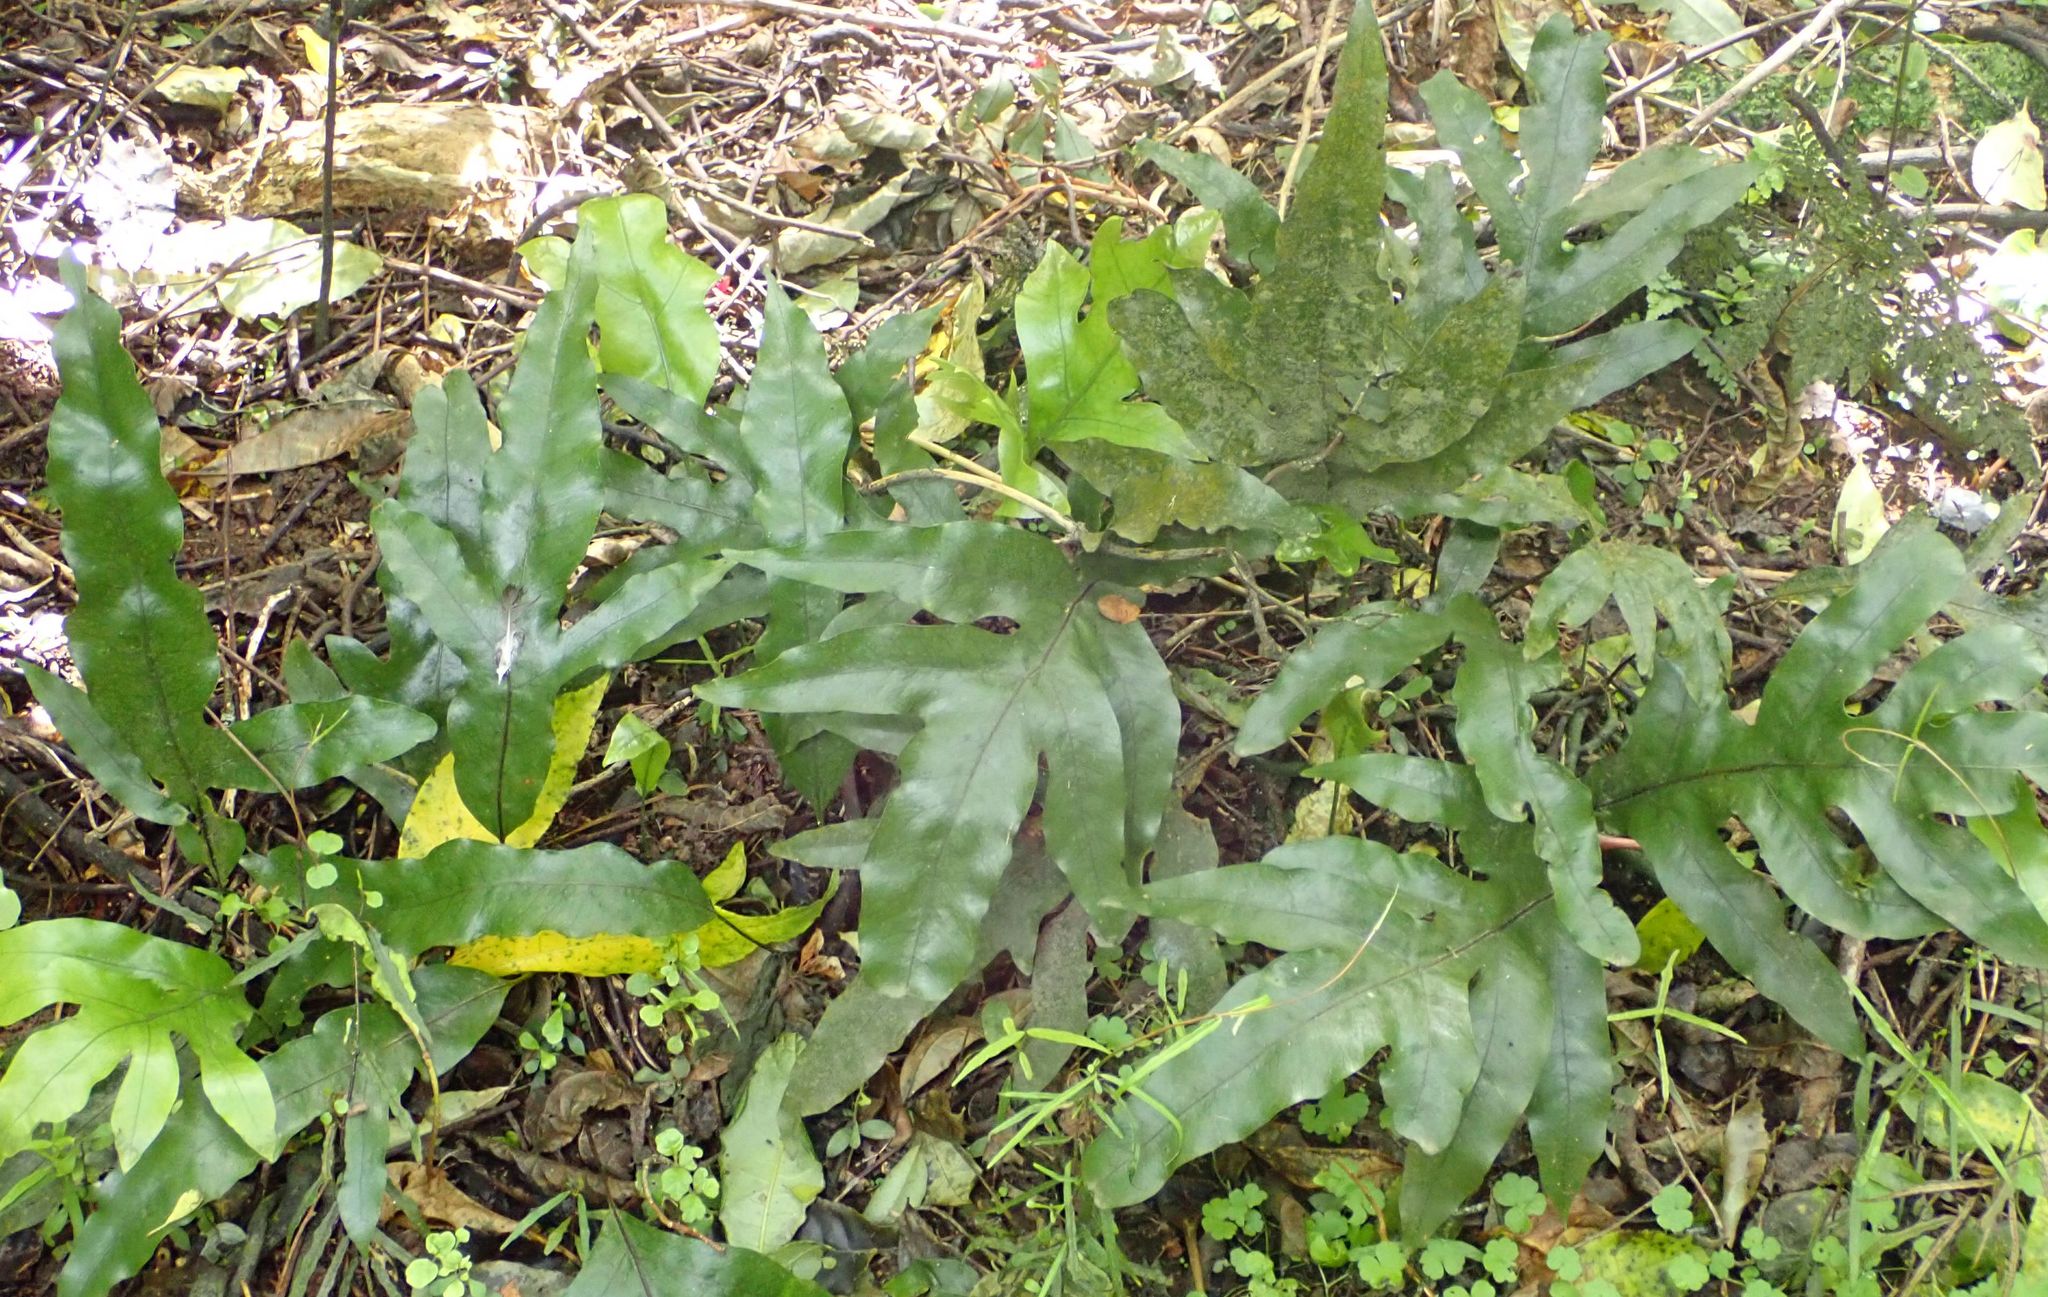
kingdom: Plantae
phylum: Tracheophyta
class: Polypodiopsida
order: Polypodiales
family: Polypodiaceae
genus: Lecanopteris
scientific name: Lecanopteris pustulata
